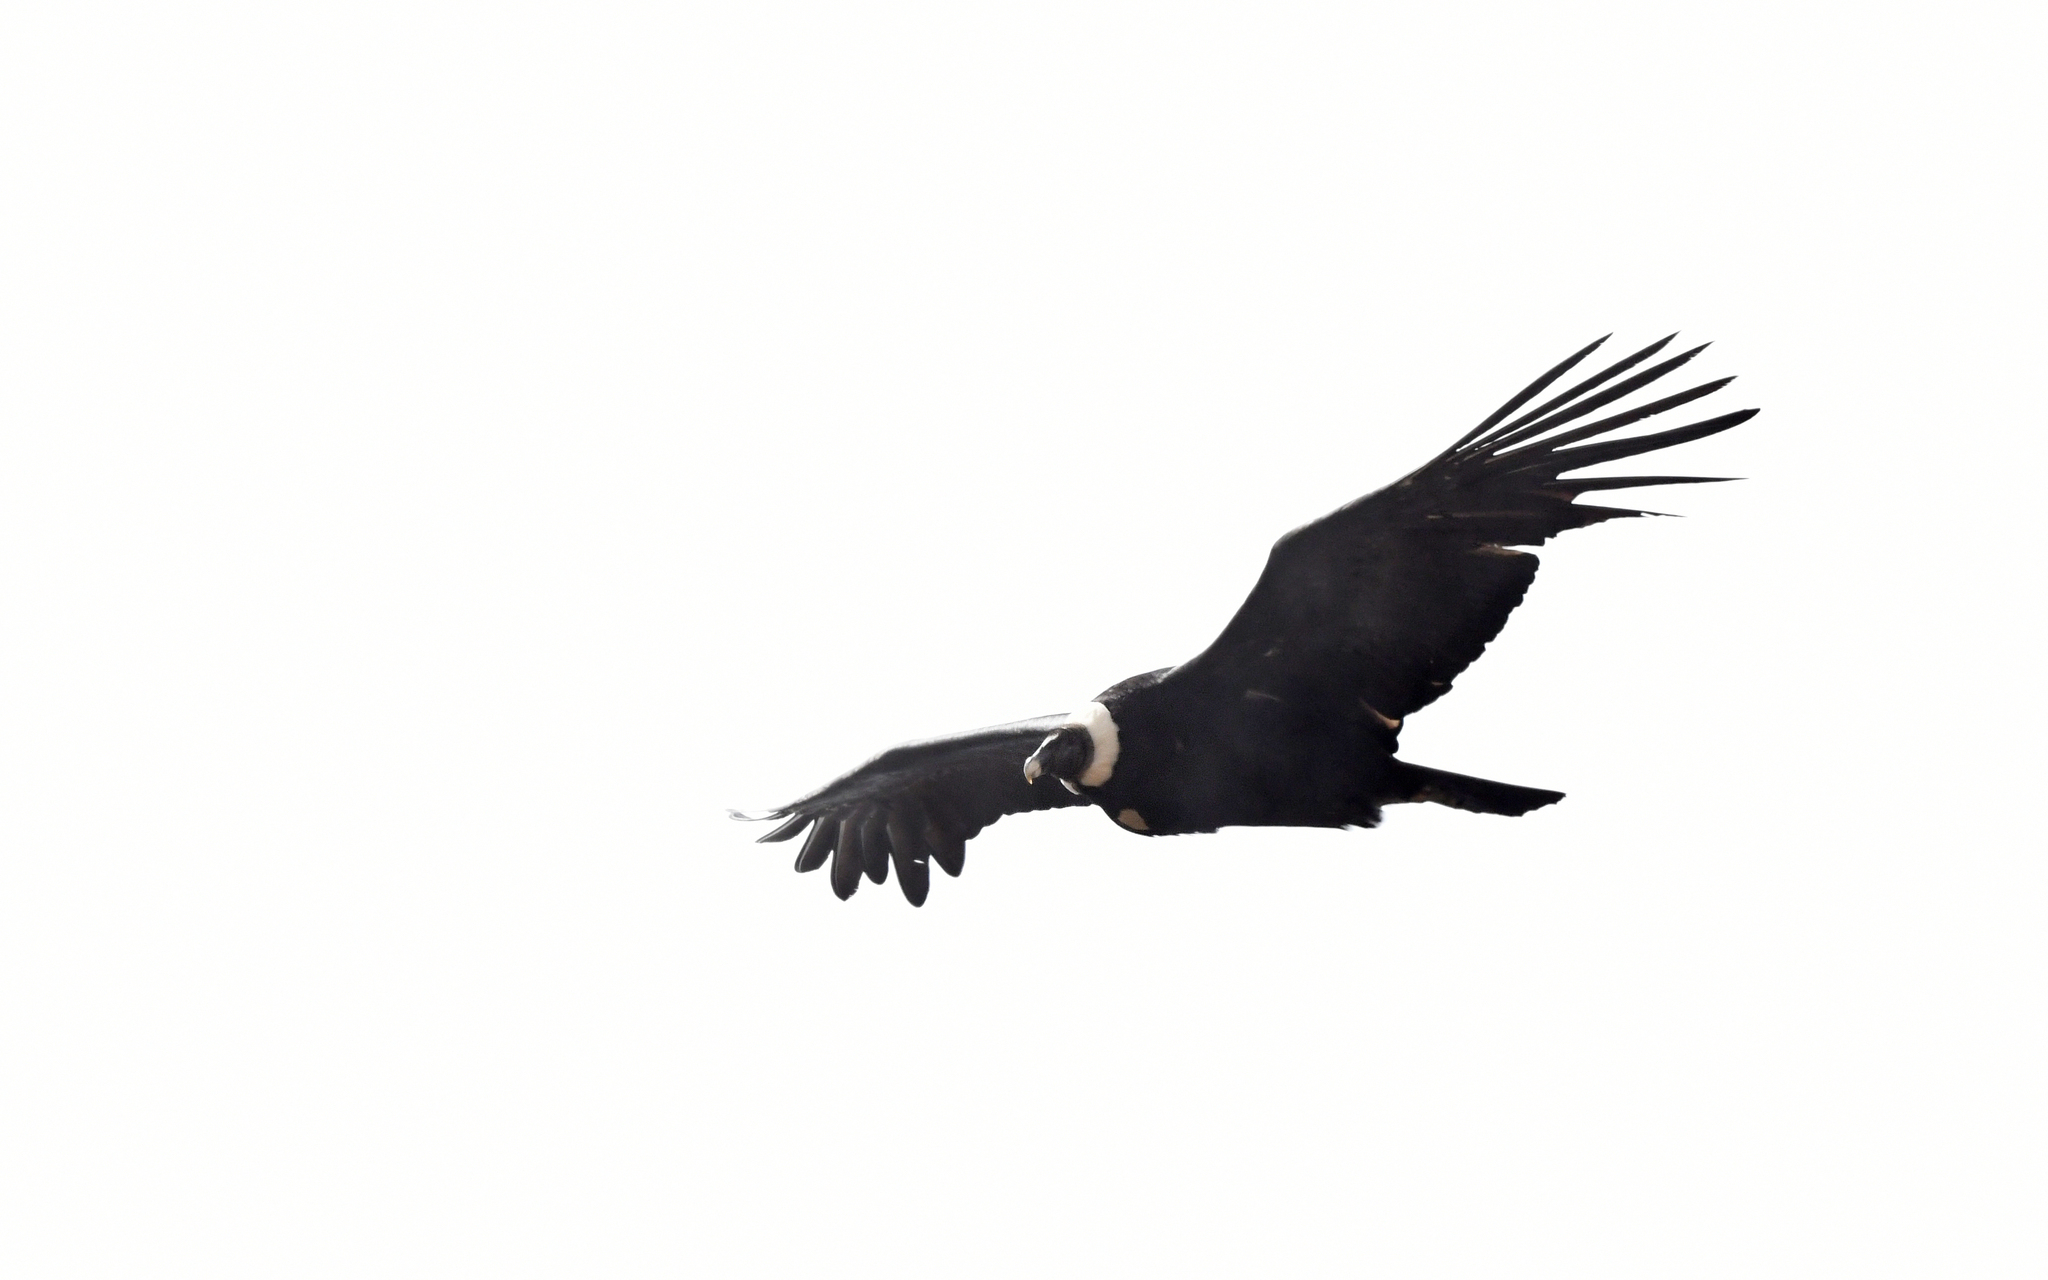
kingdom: Animalia
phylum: Chordata
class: Aves
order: Accipitriformes
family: Cathartidae
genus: Vultur
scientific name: Vultur gryphus
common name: Andean condor
